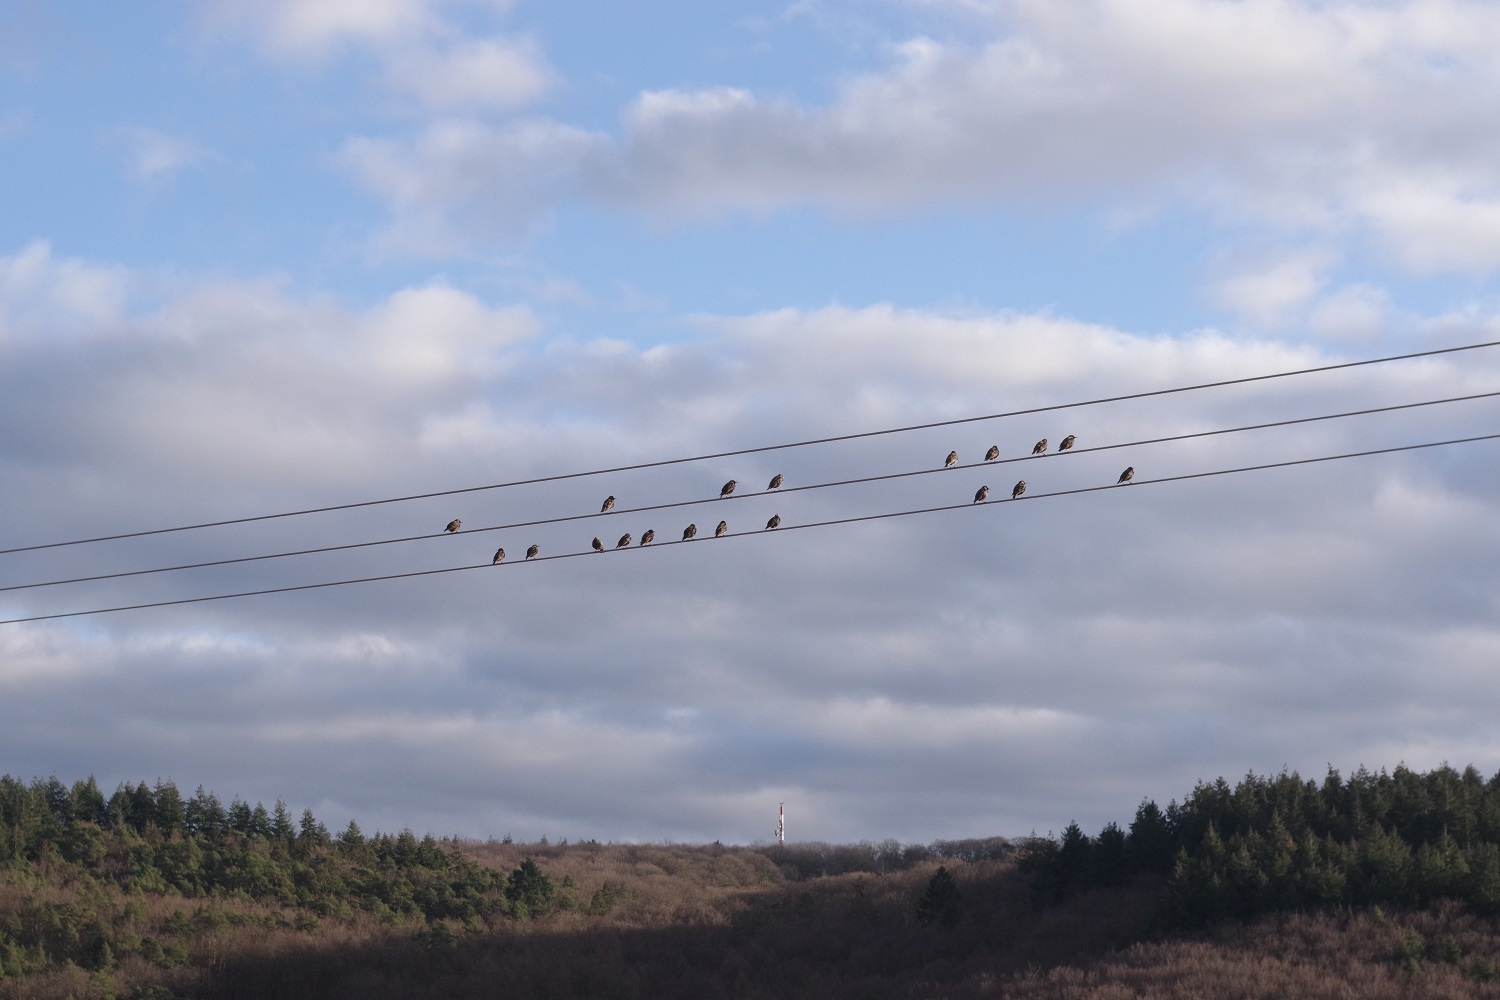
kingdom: Animalia
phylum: Chordata
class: Aves
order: Passeriformes
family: Sturnidae
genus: Sturnus
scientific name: Sturnus vulgaris
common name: Common starling
